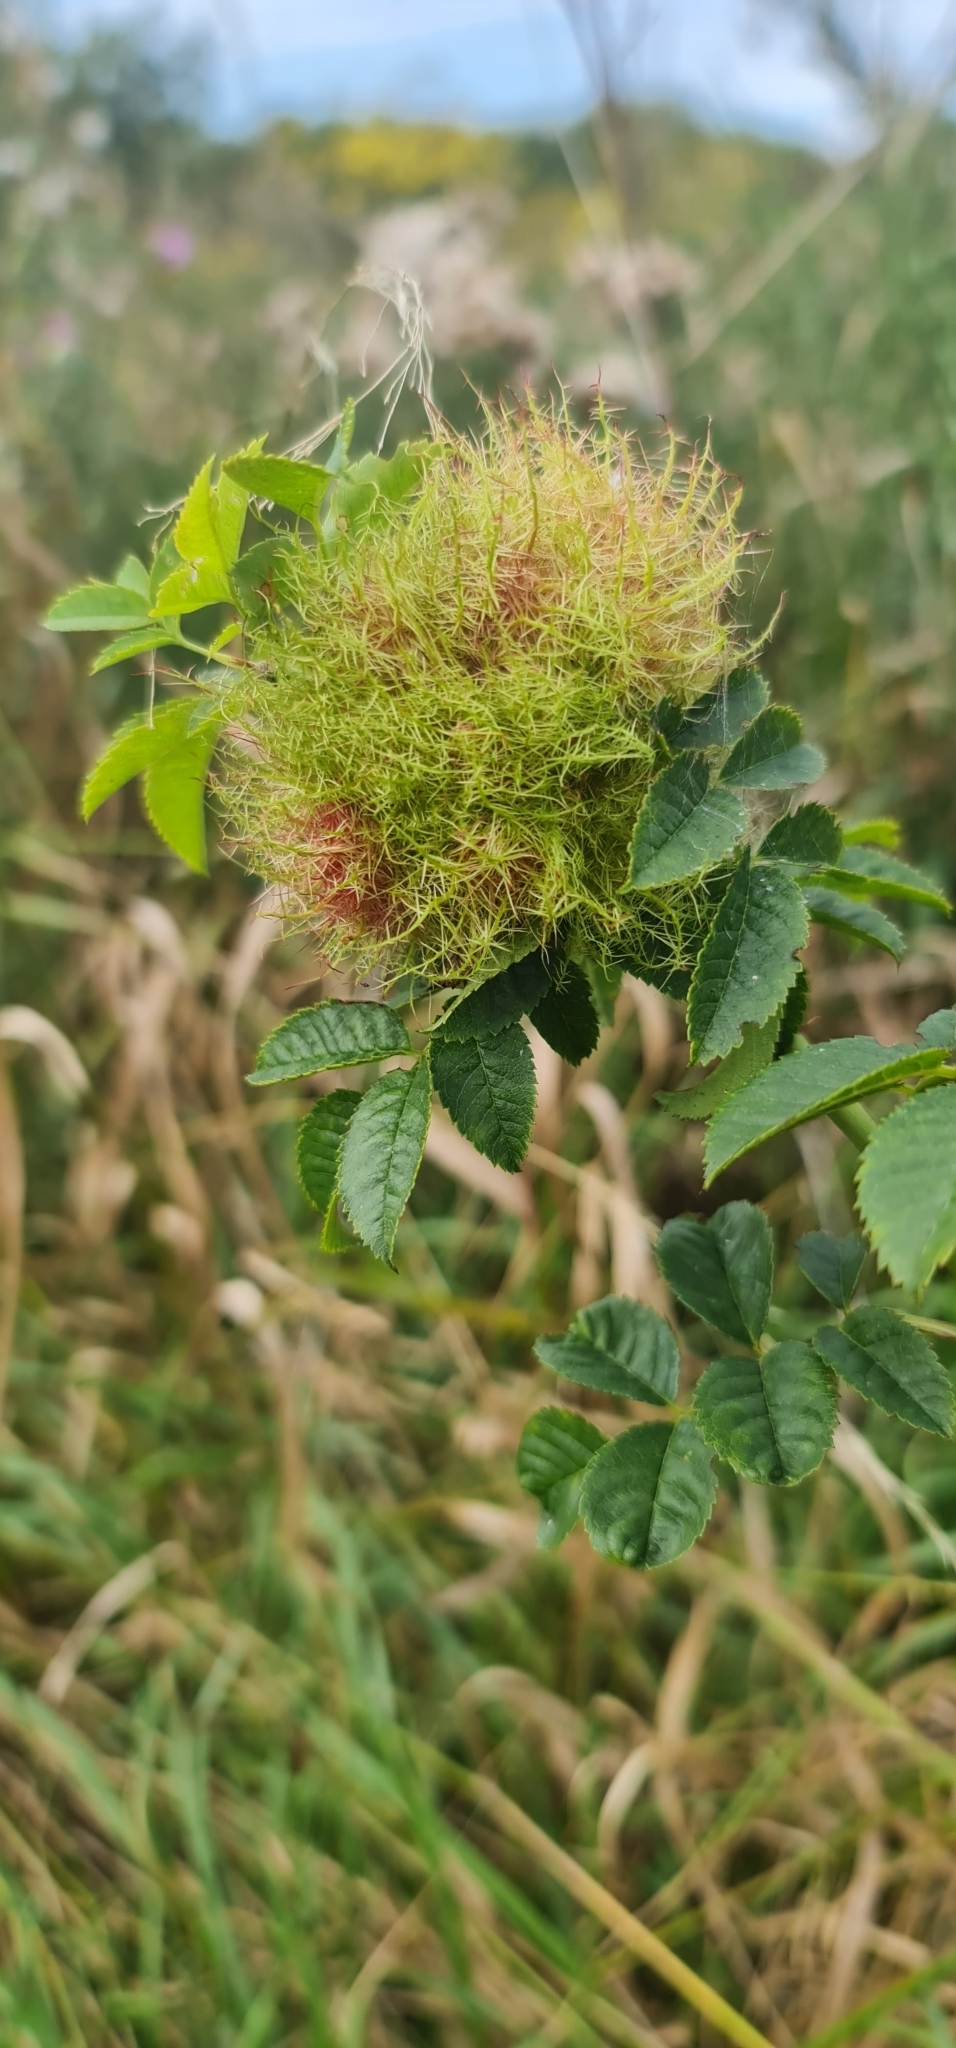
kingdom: Animalia
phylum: Arthropoda
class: Insecta
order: Hymenoptera
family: Cynipidae
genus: Diplolepis
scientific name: Diplolepis rosae
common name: Bedeguar gall
